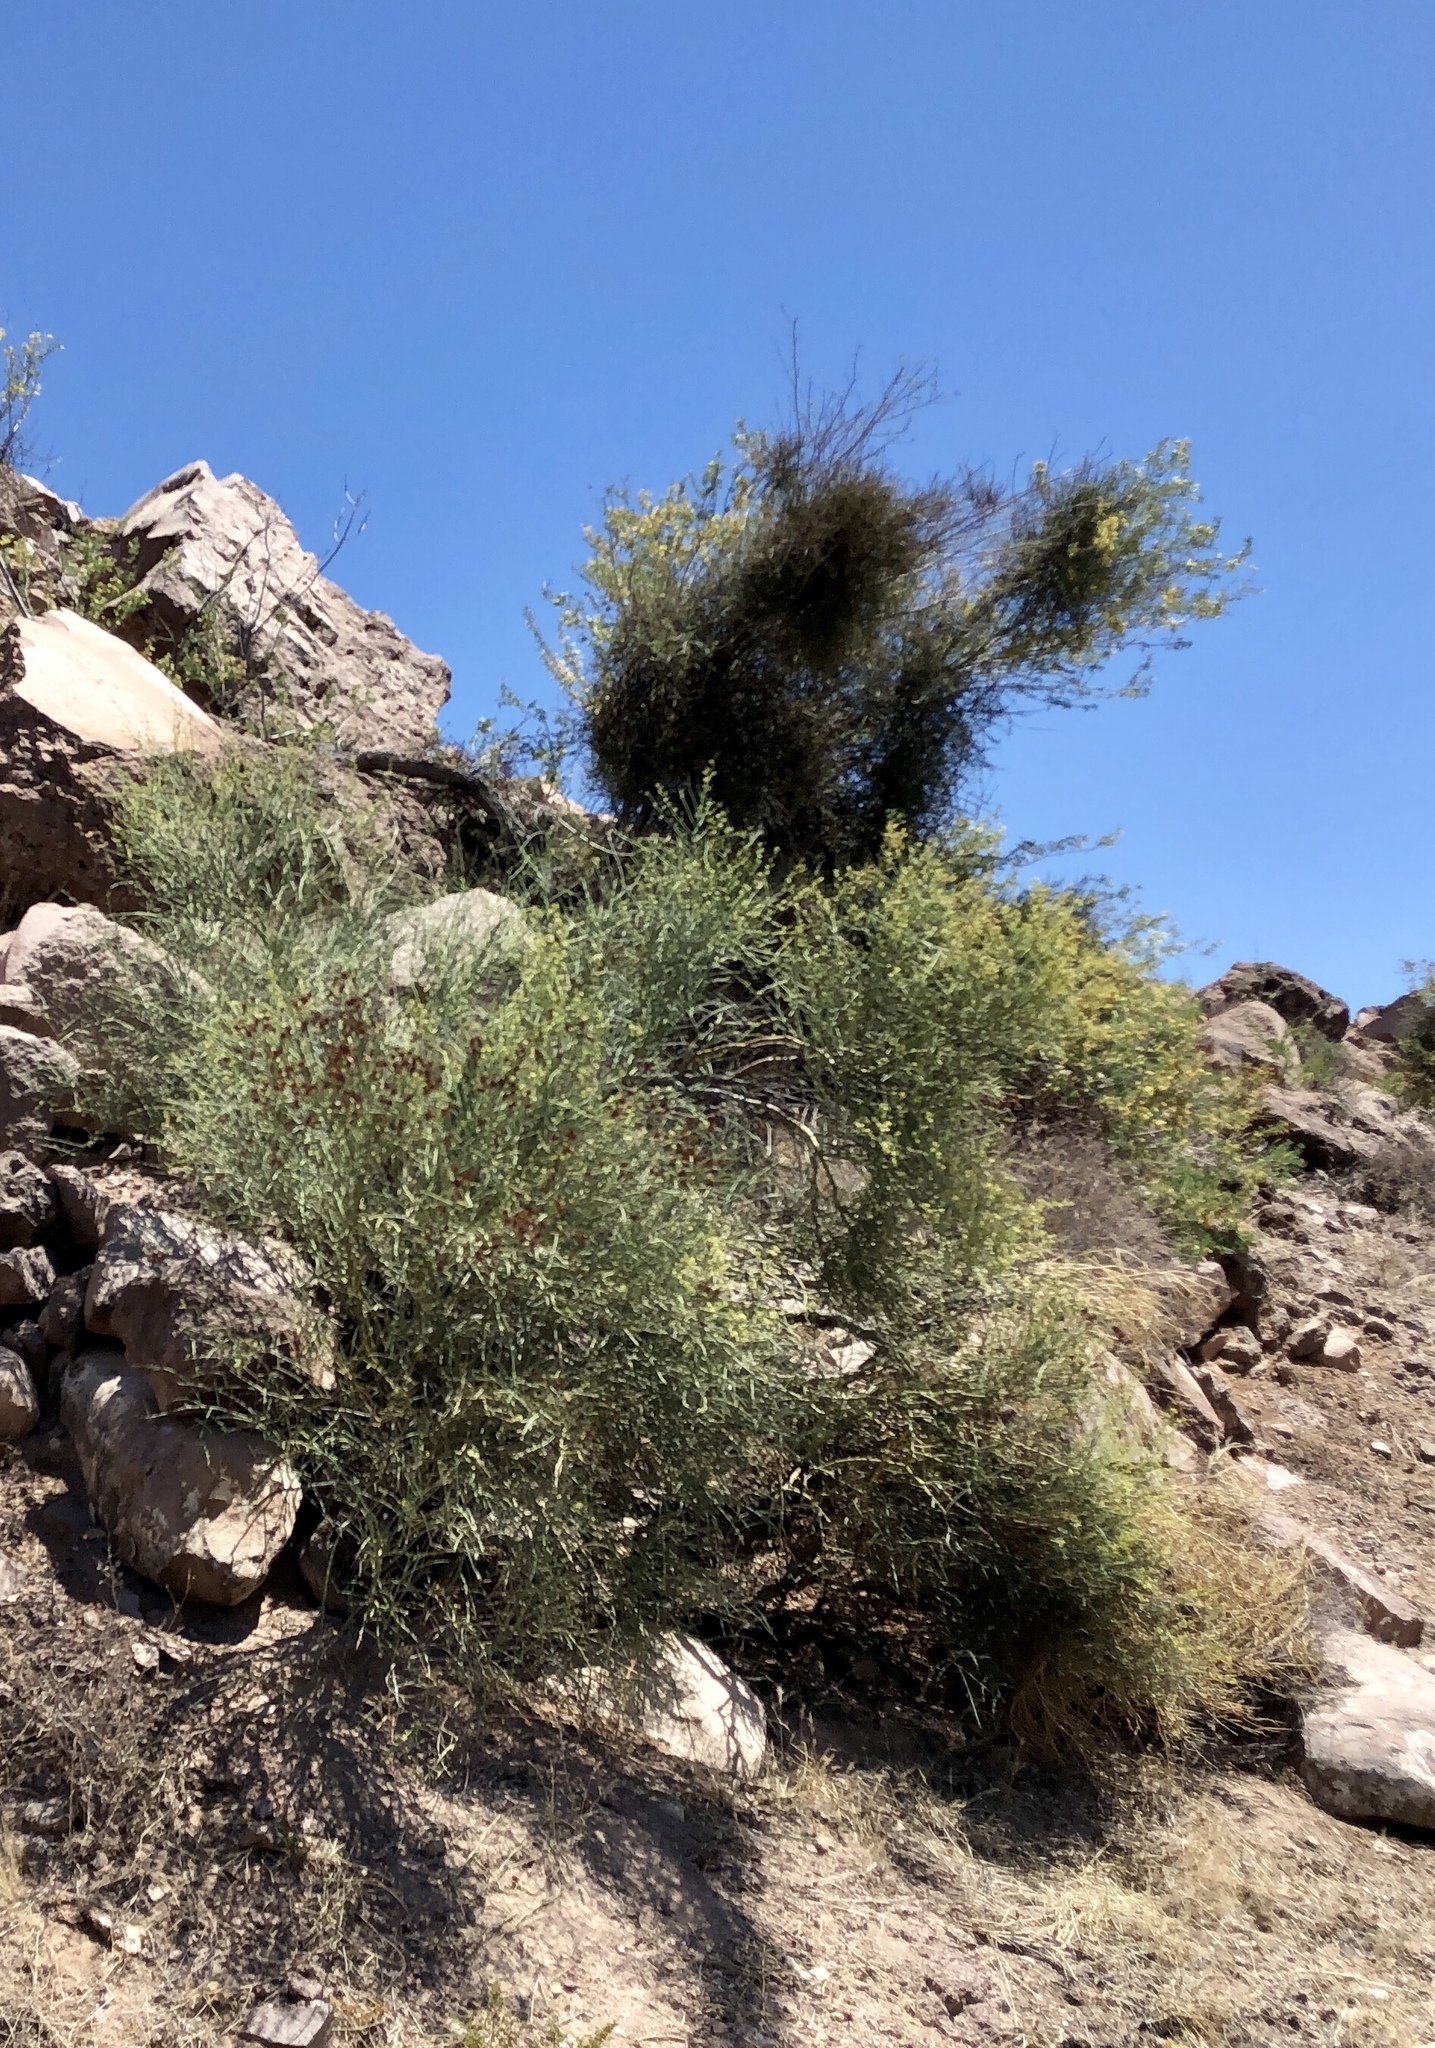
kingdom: Plantae
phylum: Tracheophyta
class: Magnoliopsida
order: Celastrales
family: Celastraceae
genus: Canotia
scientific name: Canotia holacantha
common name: Crucifixion thorns
